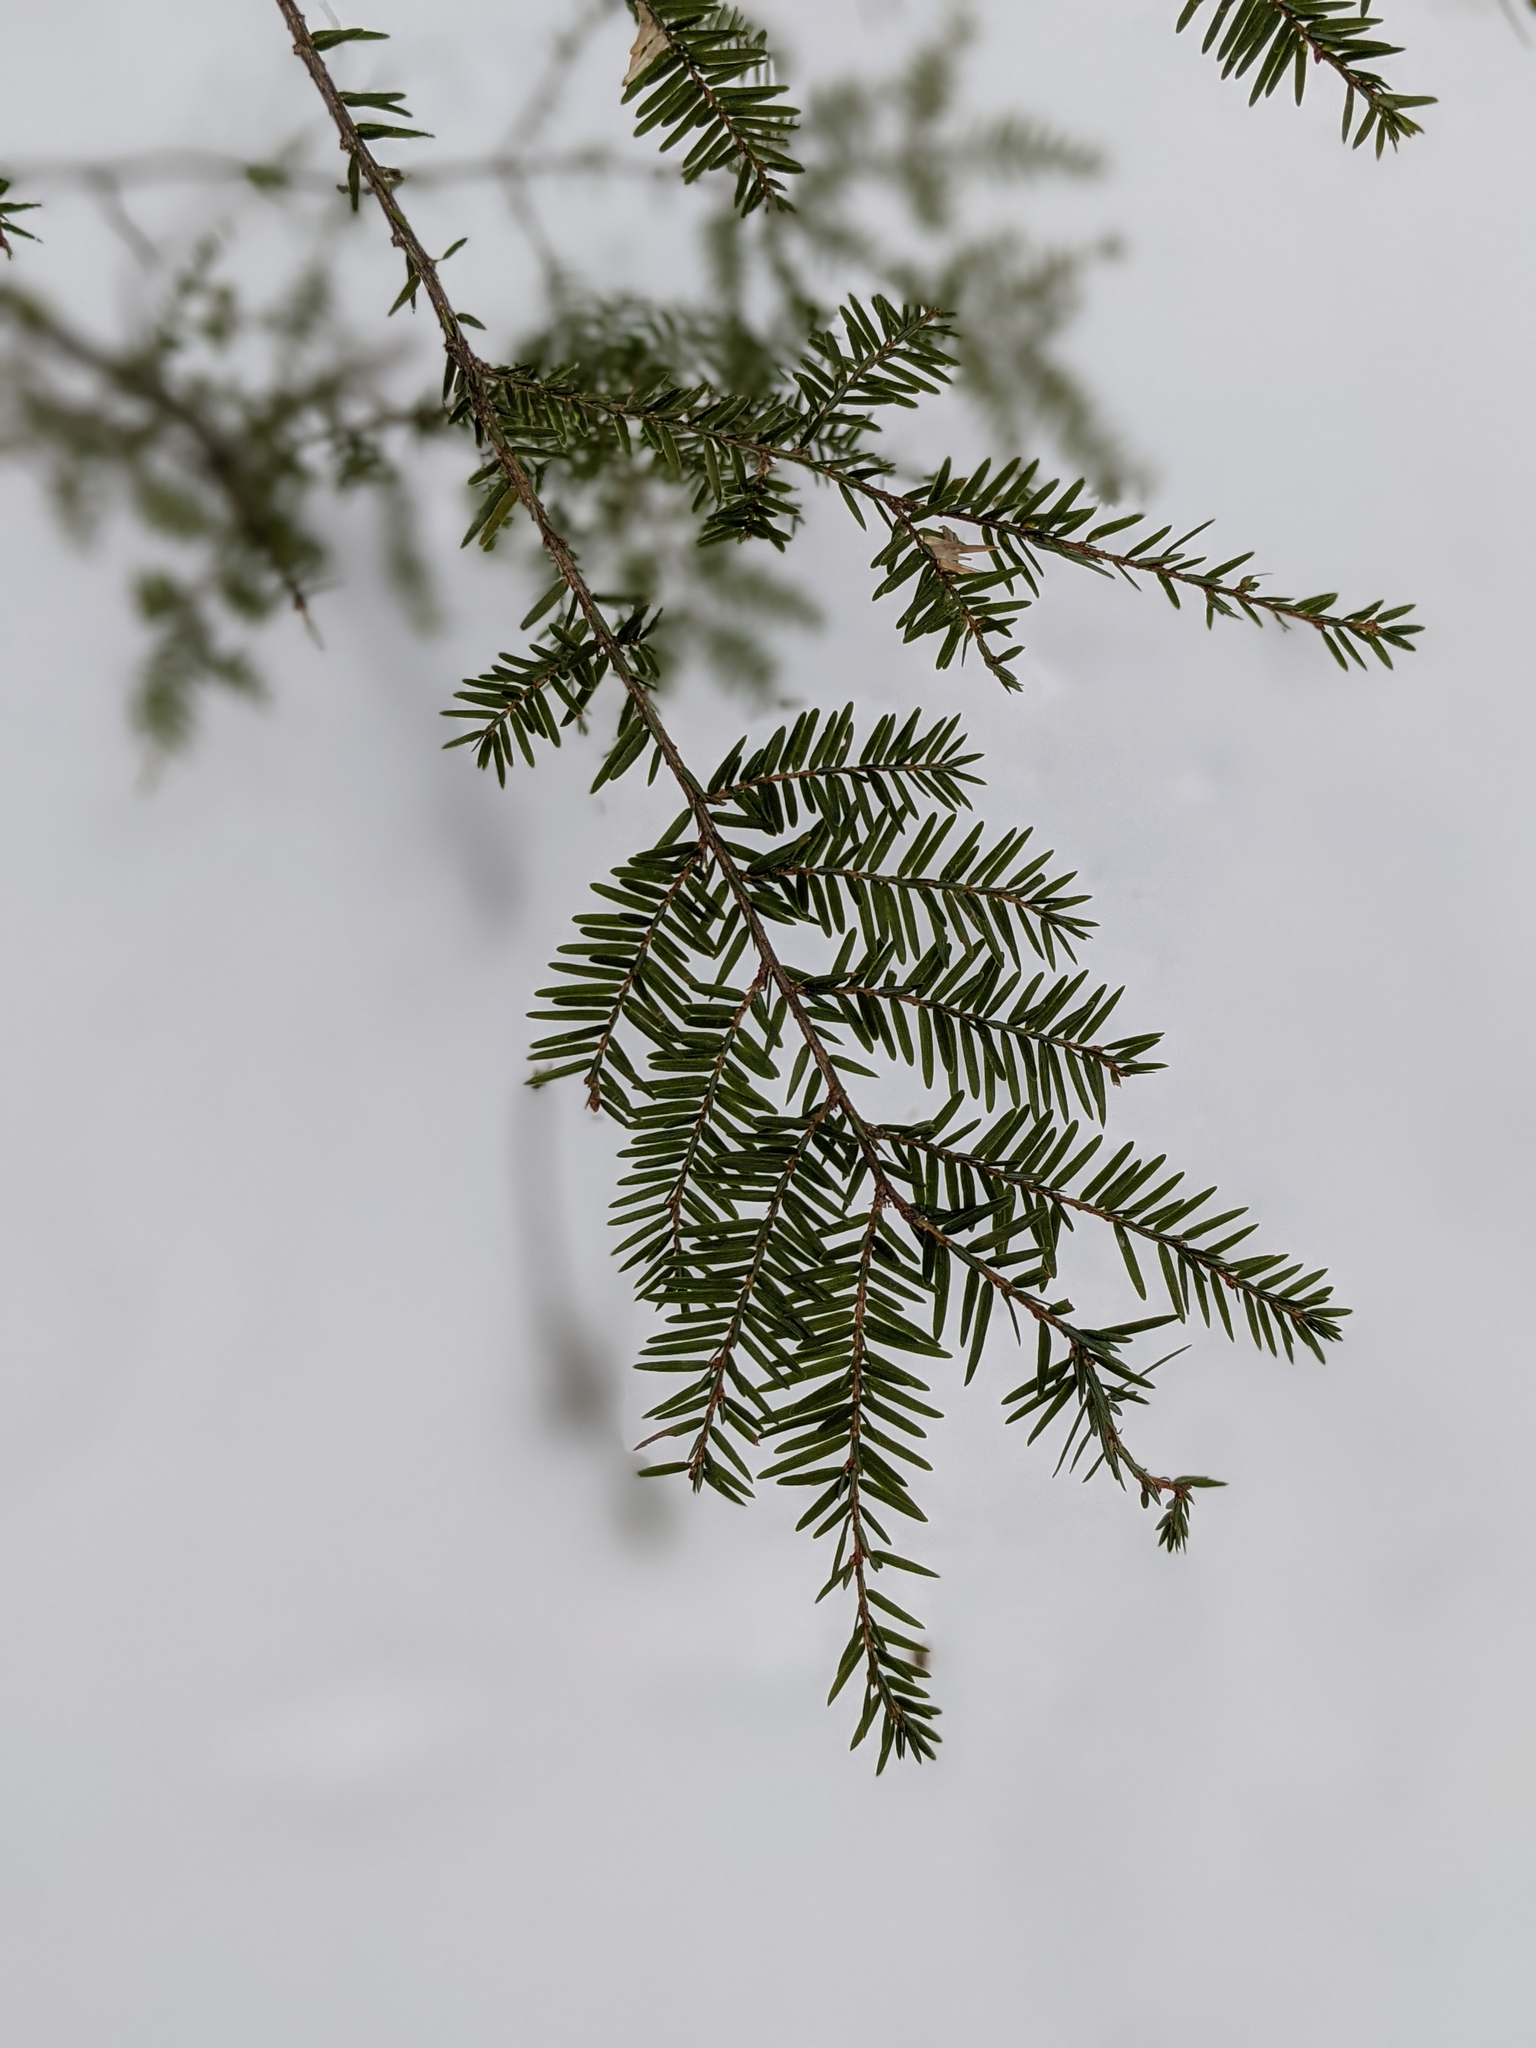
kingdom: Plantae
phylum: Tracheophyta
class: Pinopsida
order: Pinales
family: Pinaceae
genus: Tsuga
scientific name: Tsuga canadensis
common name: Eastern hemlock
